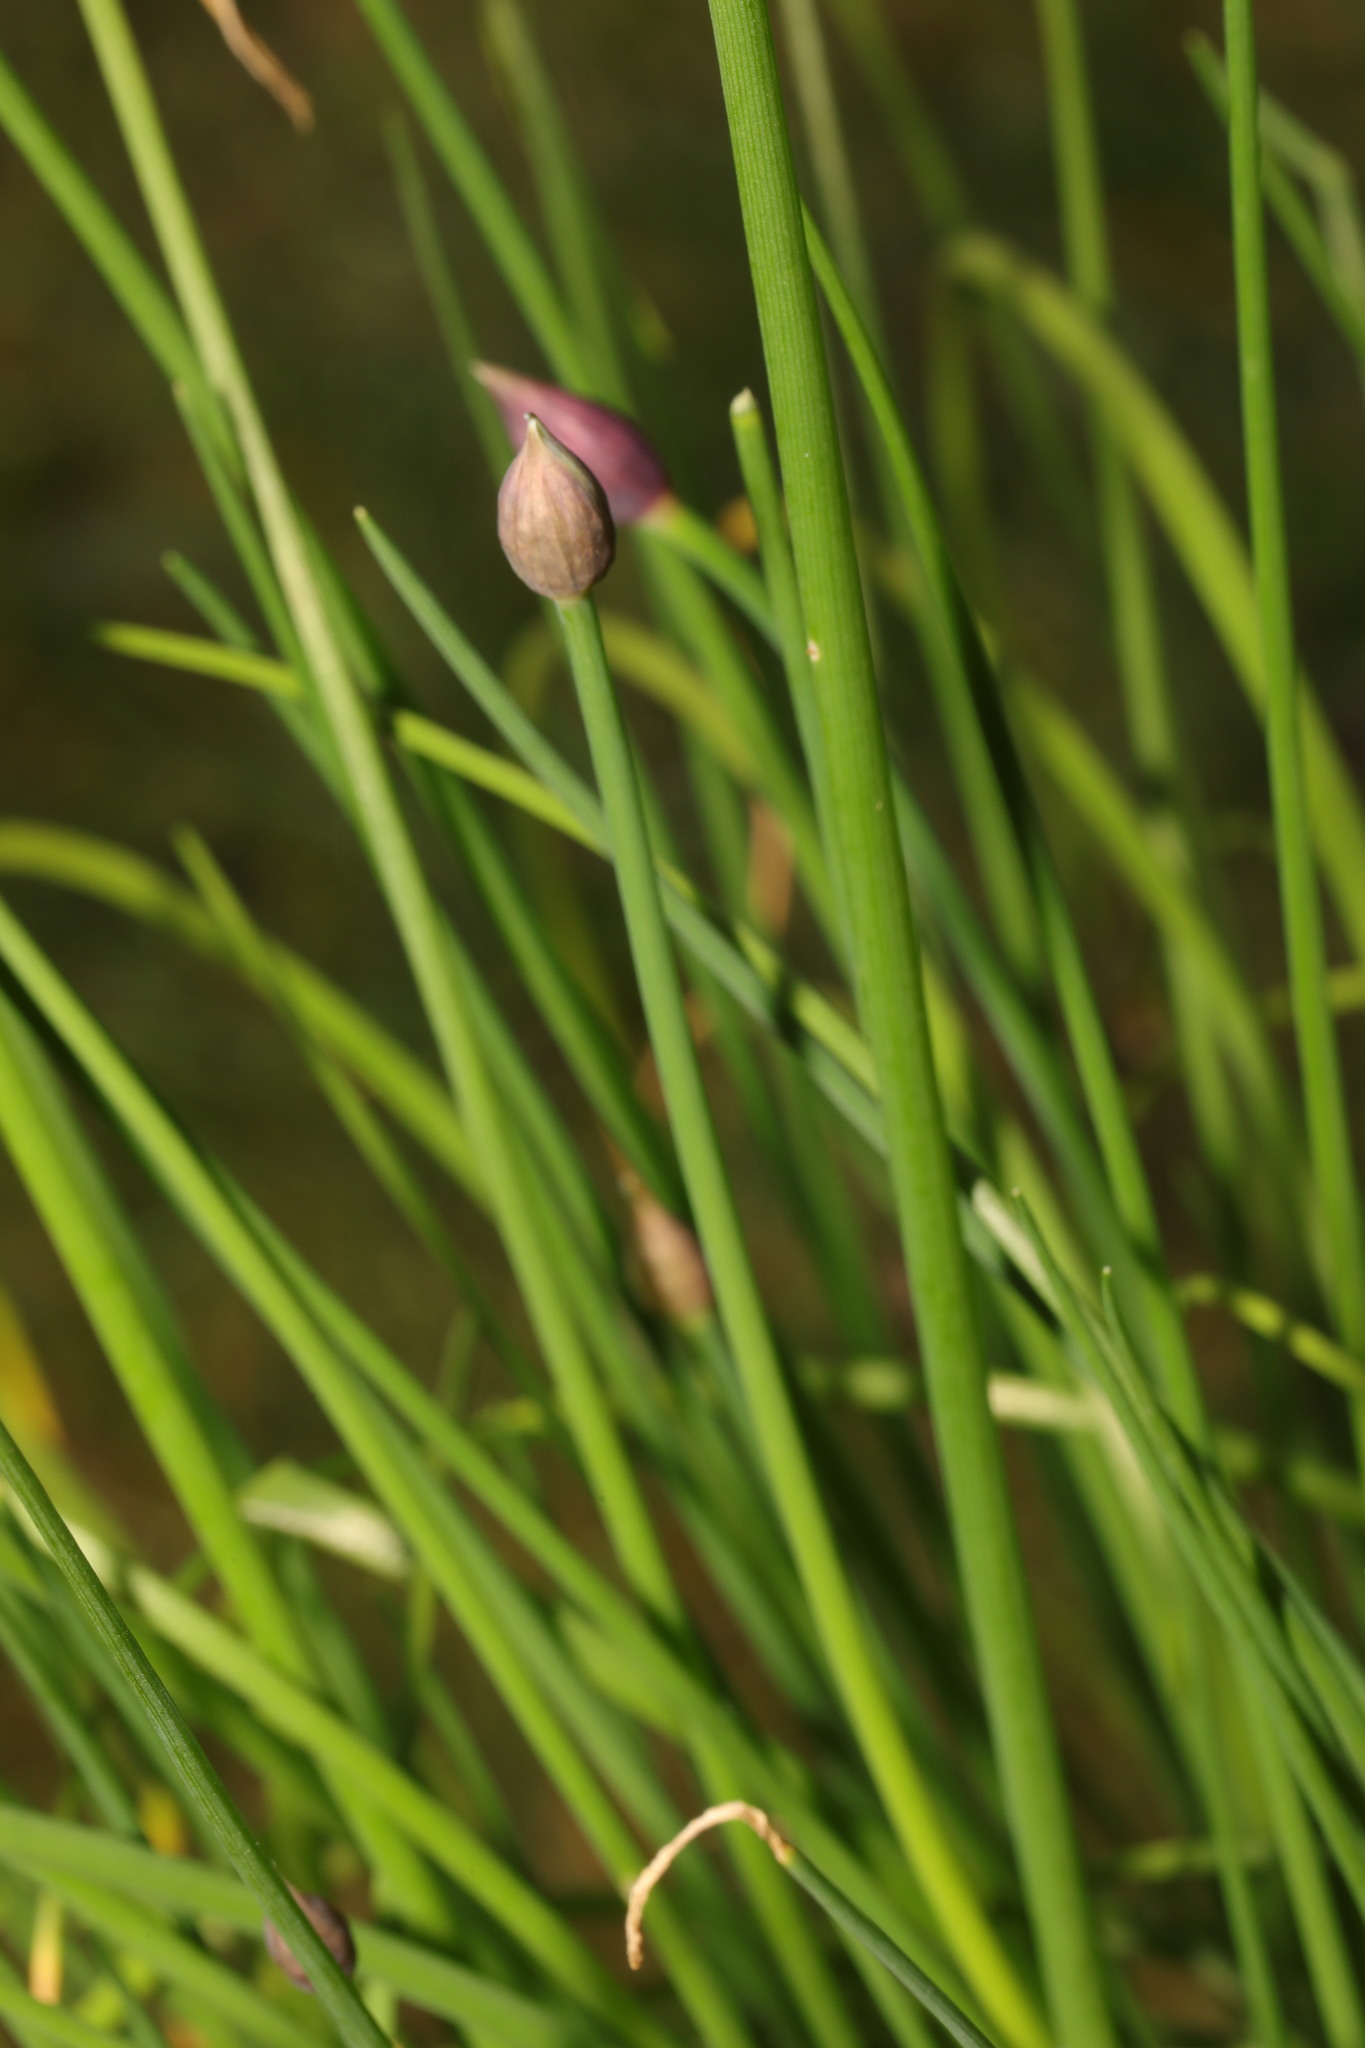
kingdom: Plantae
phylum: Tracheophyta
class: Liliopsida
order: Asparagales
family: Amaryllidaceae
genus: Allium
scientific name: Allium schoenoprasum
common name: Chives
